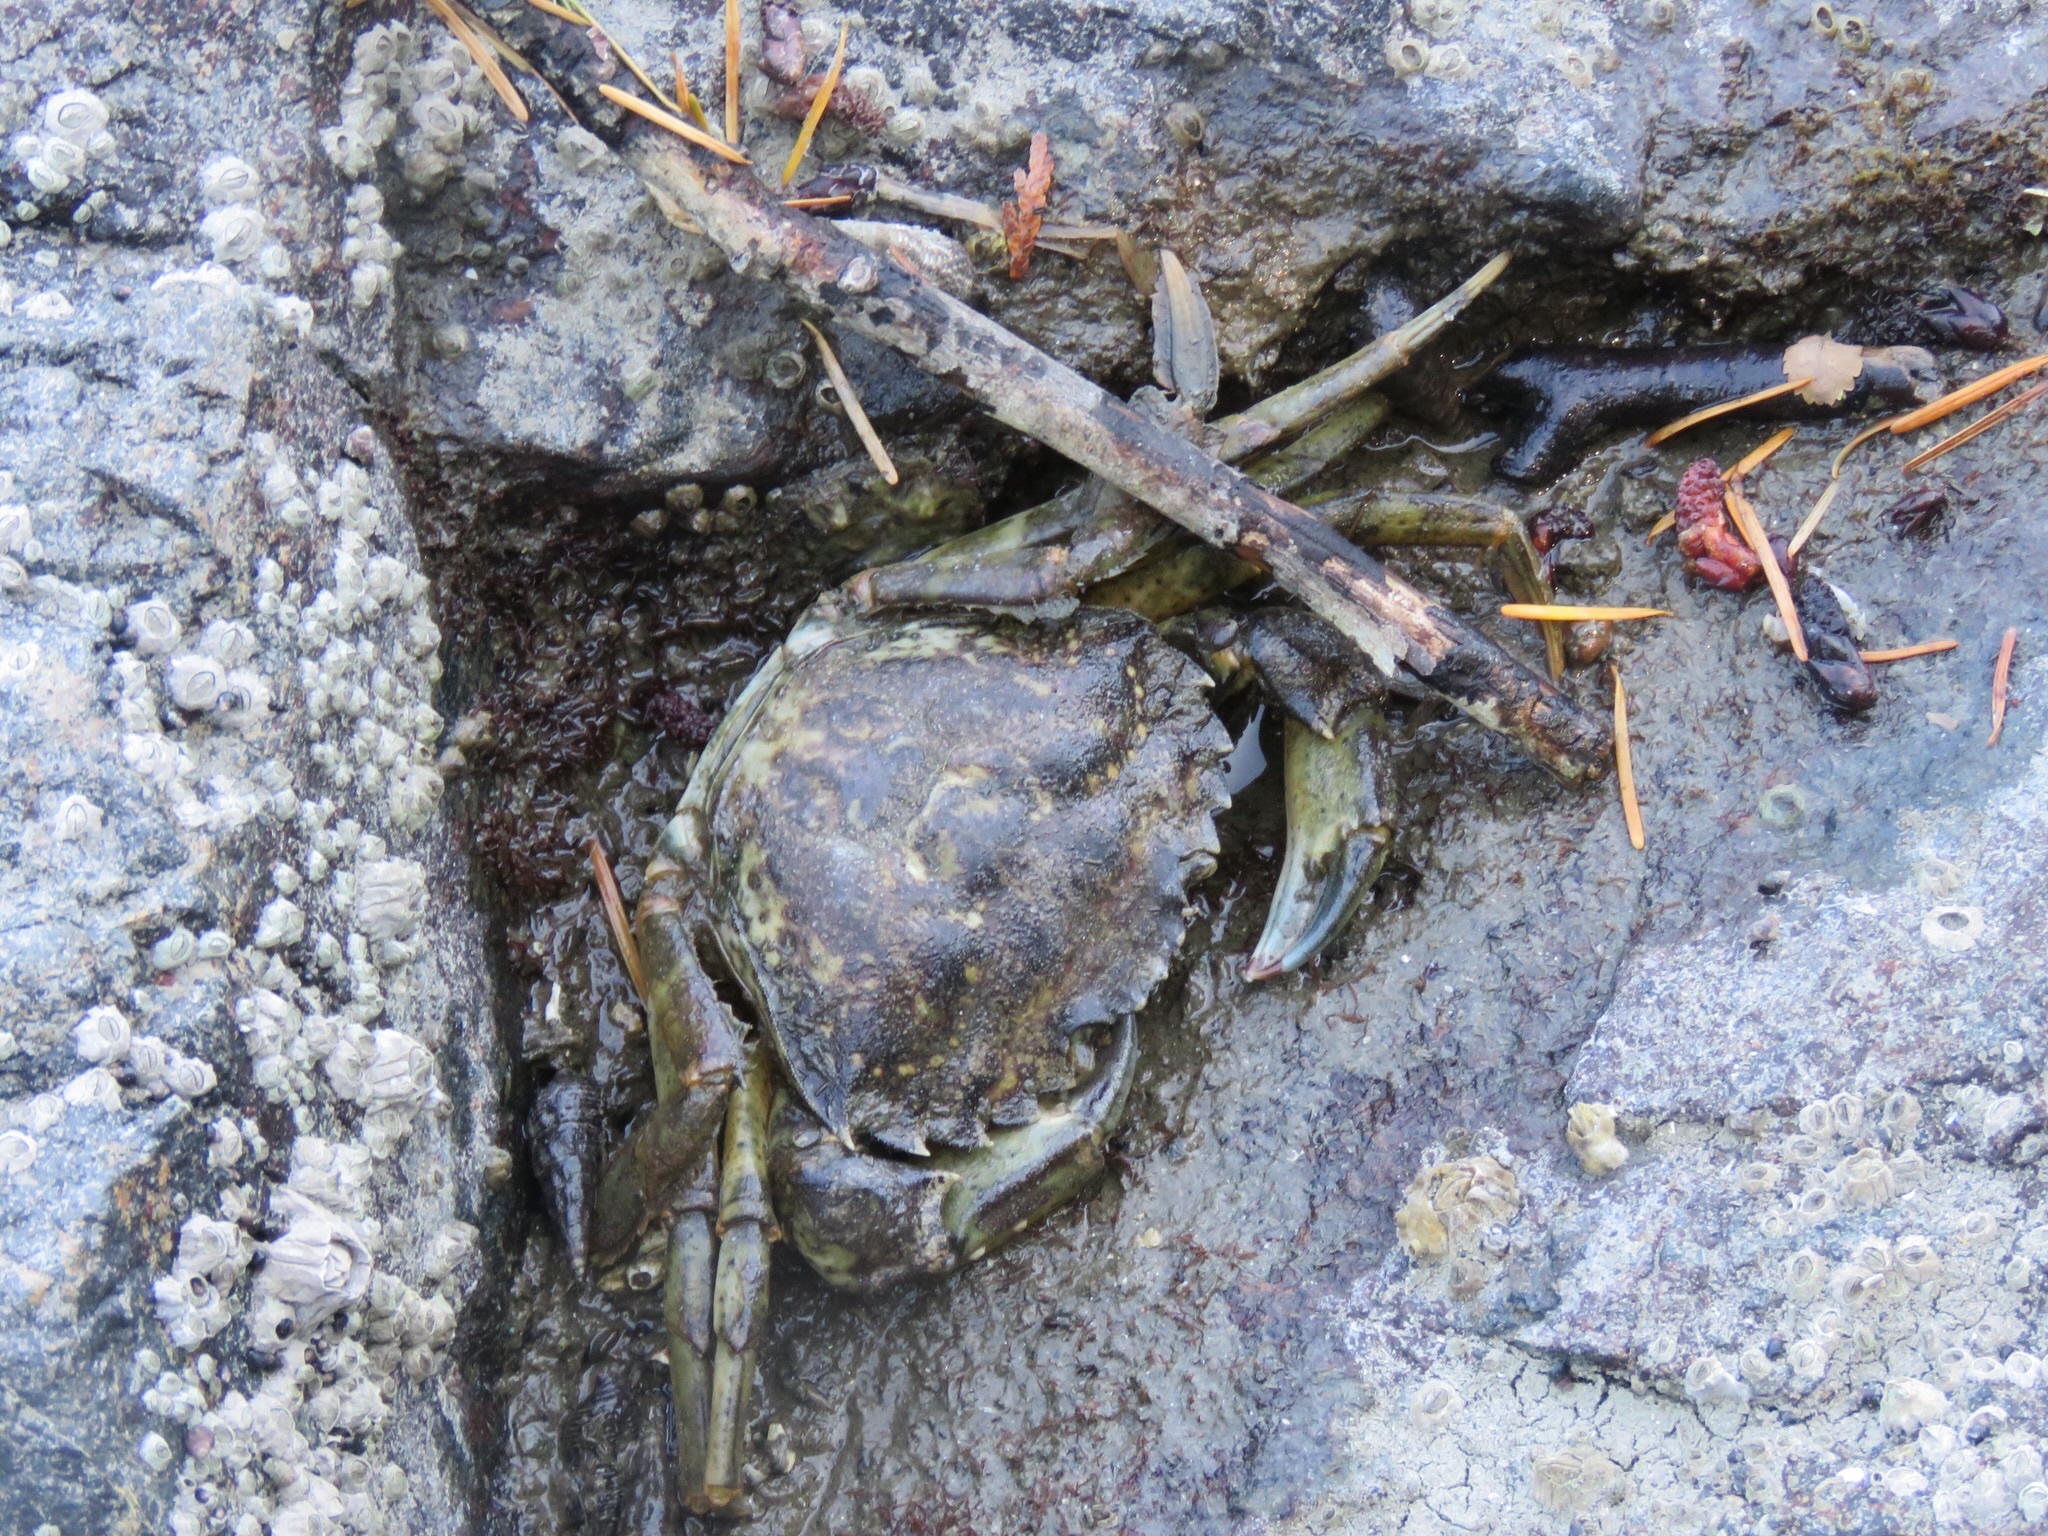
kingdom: Animalia
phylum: Arthropoda
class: Malacostraca
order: Decapoda
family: Carcinidae
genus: Carcinus
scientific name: Carcinus maenas
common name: European green crab
